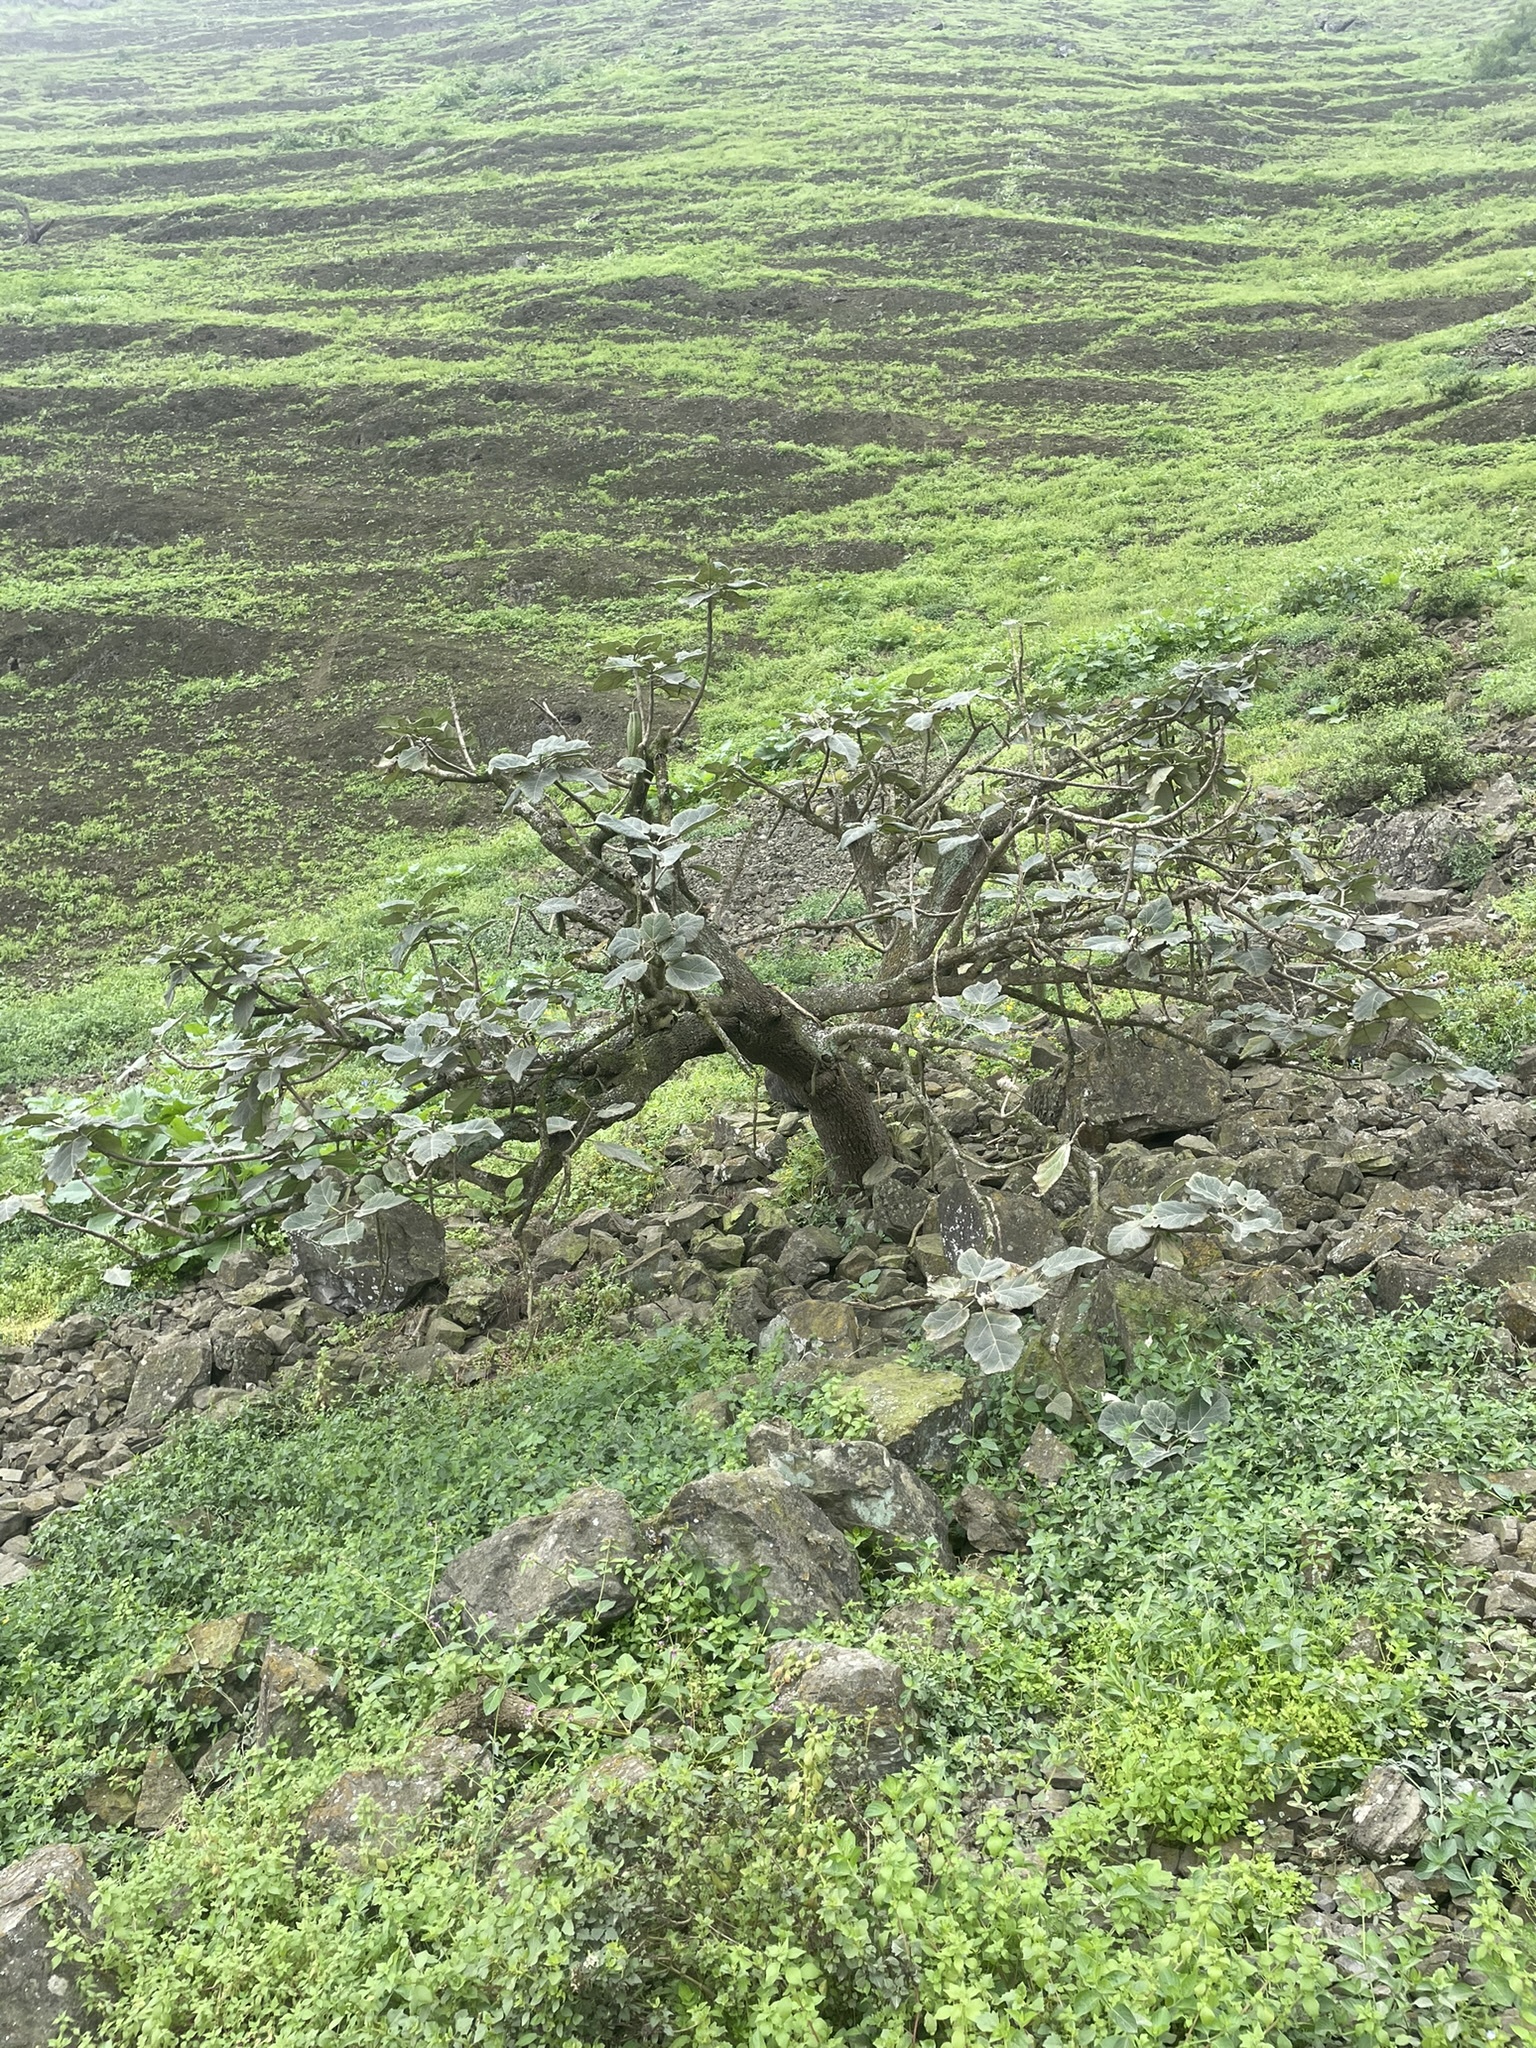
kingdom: Plantae
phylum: Tracheophyta
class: Magnoliopsida
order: Brassicales
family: Caricaceae
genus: Vasconcellea
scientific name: Vasconcellea candicans
